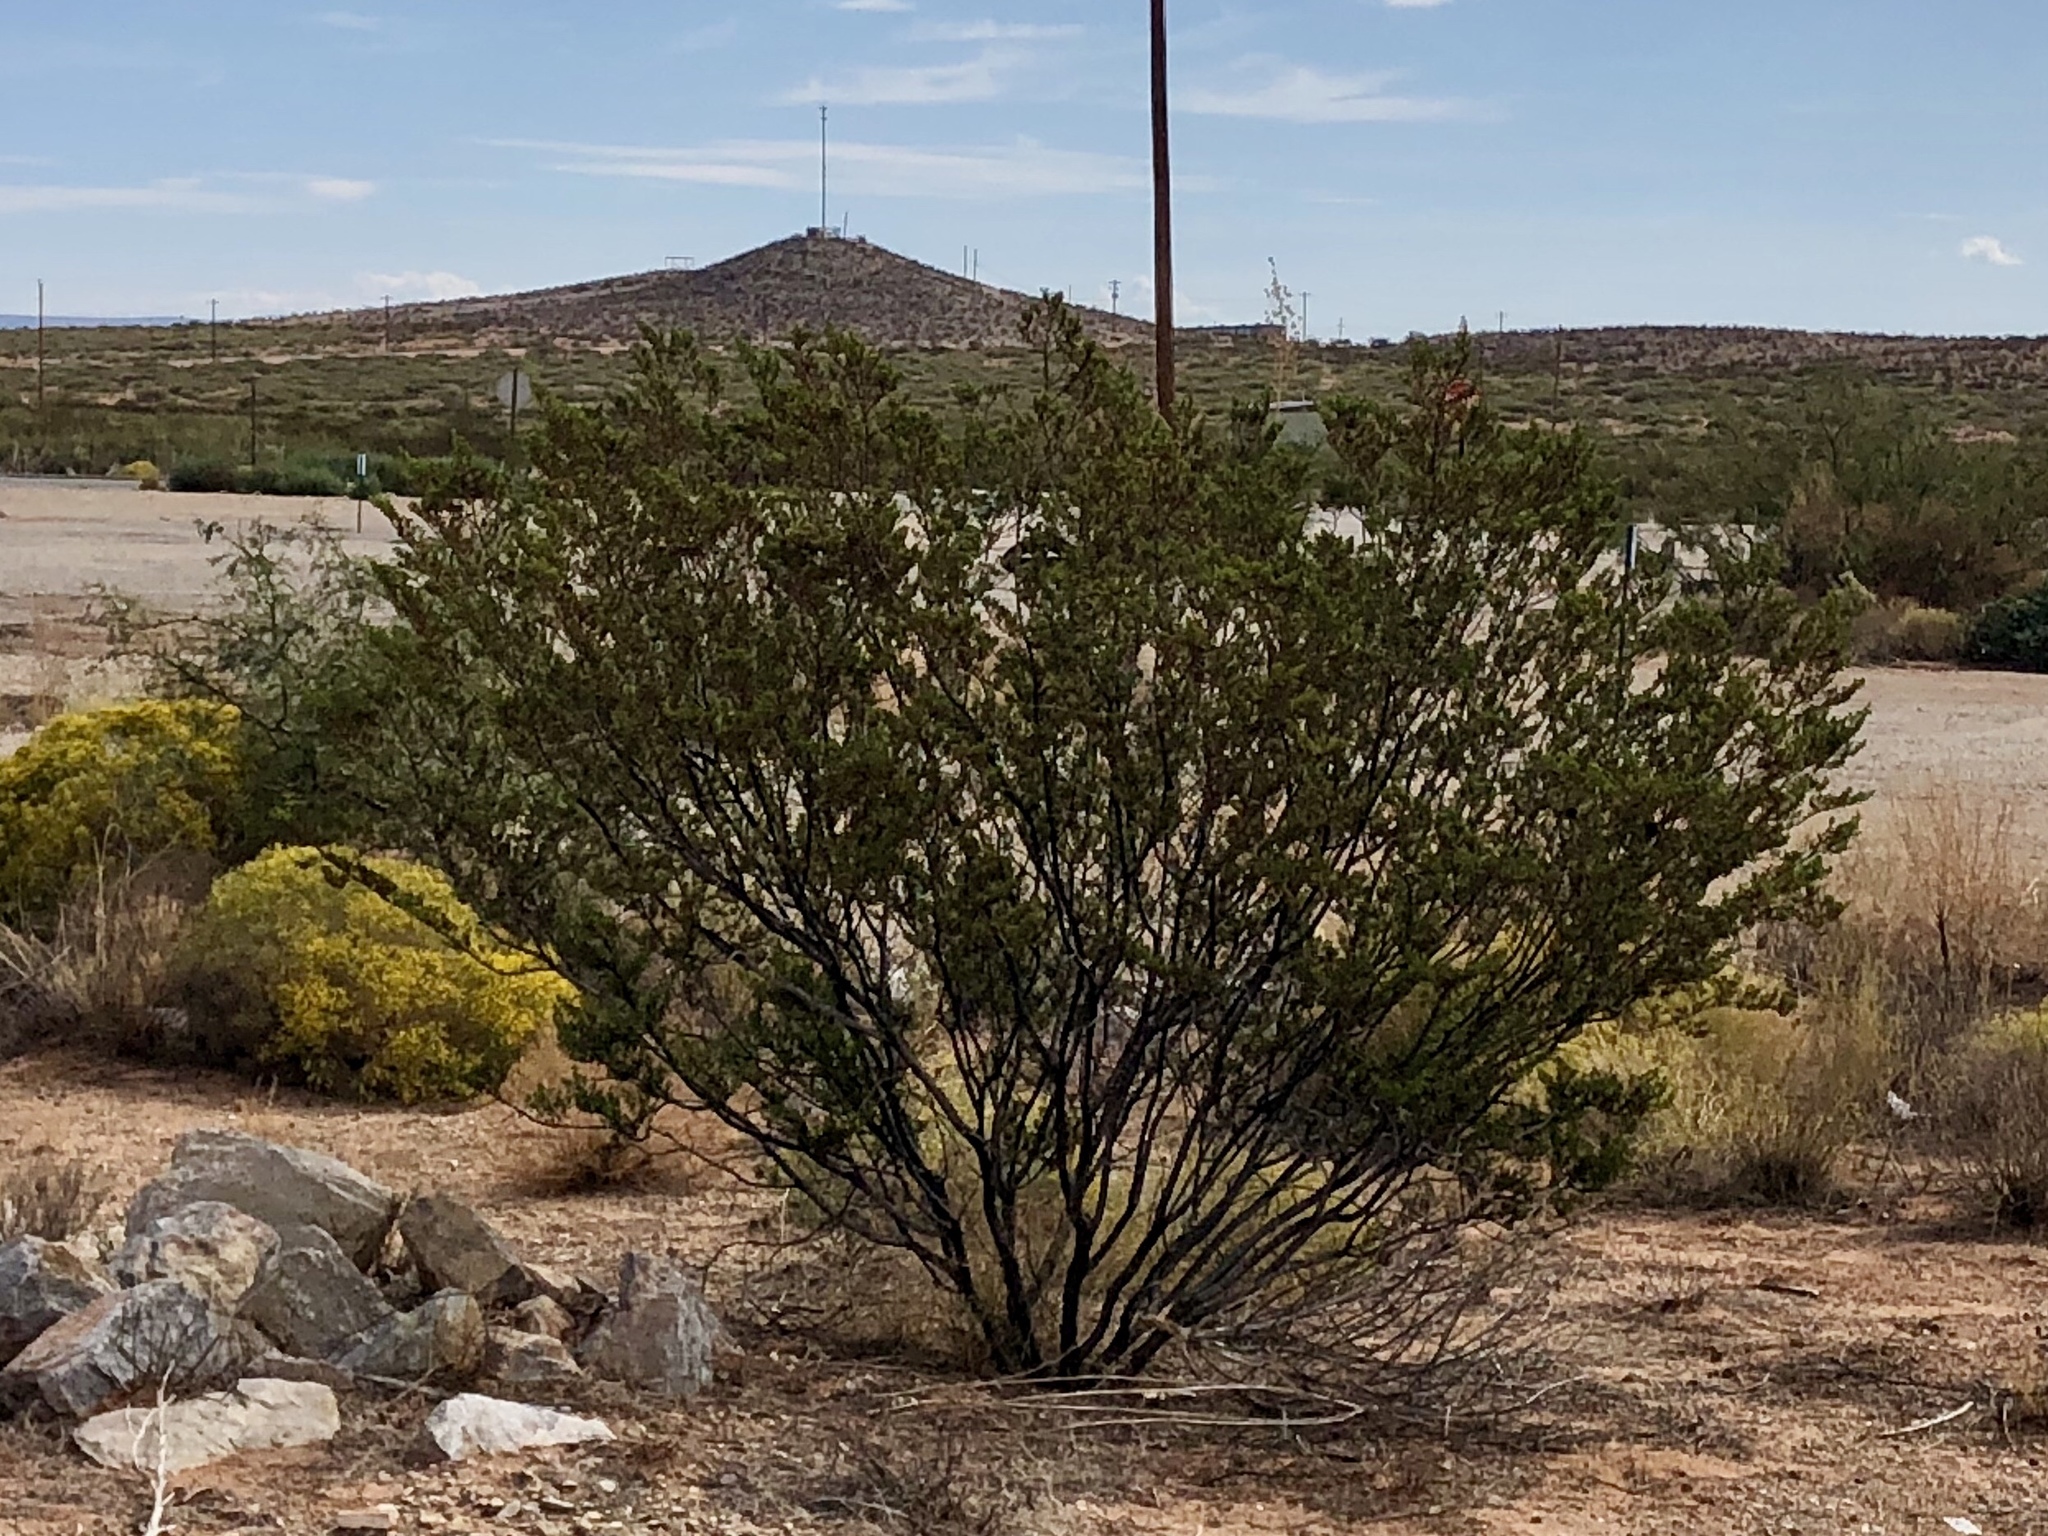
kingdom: Plantae
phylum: Tracheophyta
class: Magnoliopsida
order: Zygophyllales
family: Zygophyllaceae
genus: Larrea
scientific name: Larrea tridentata
